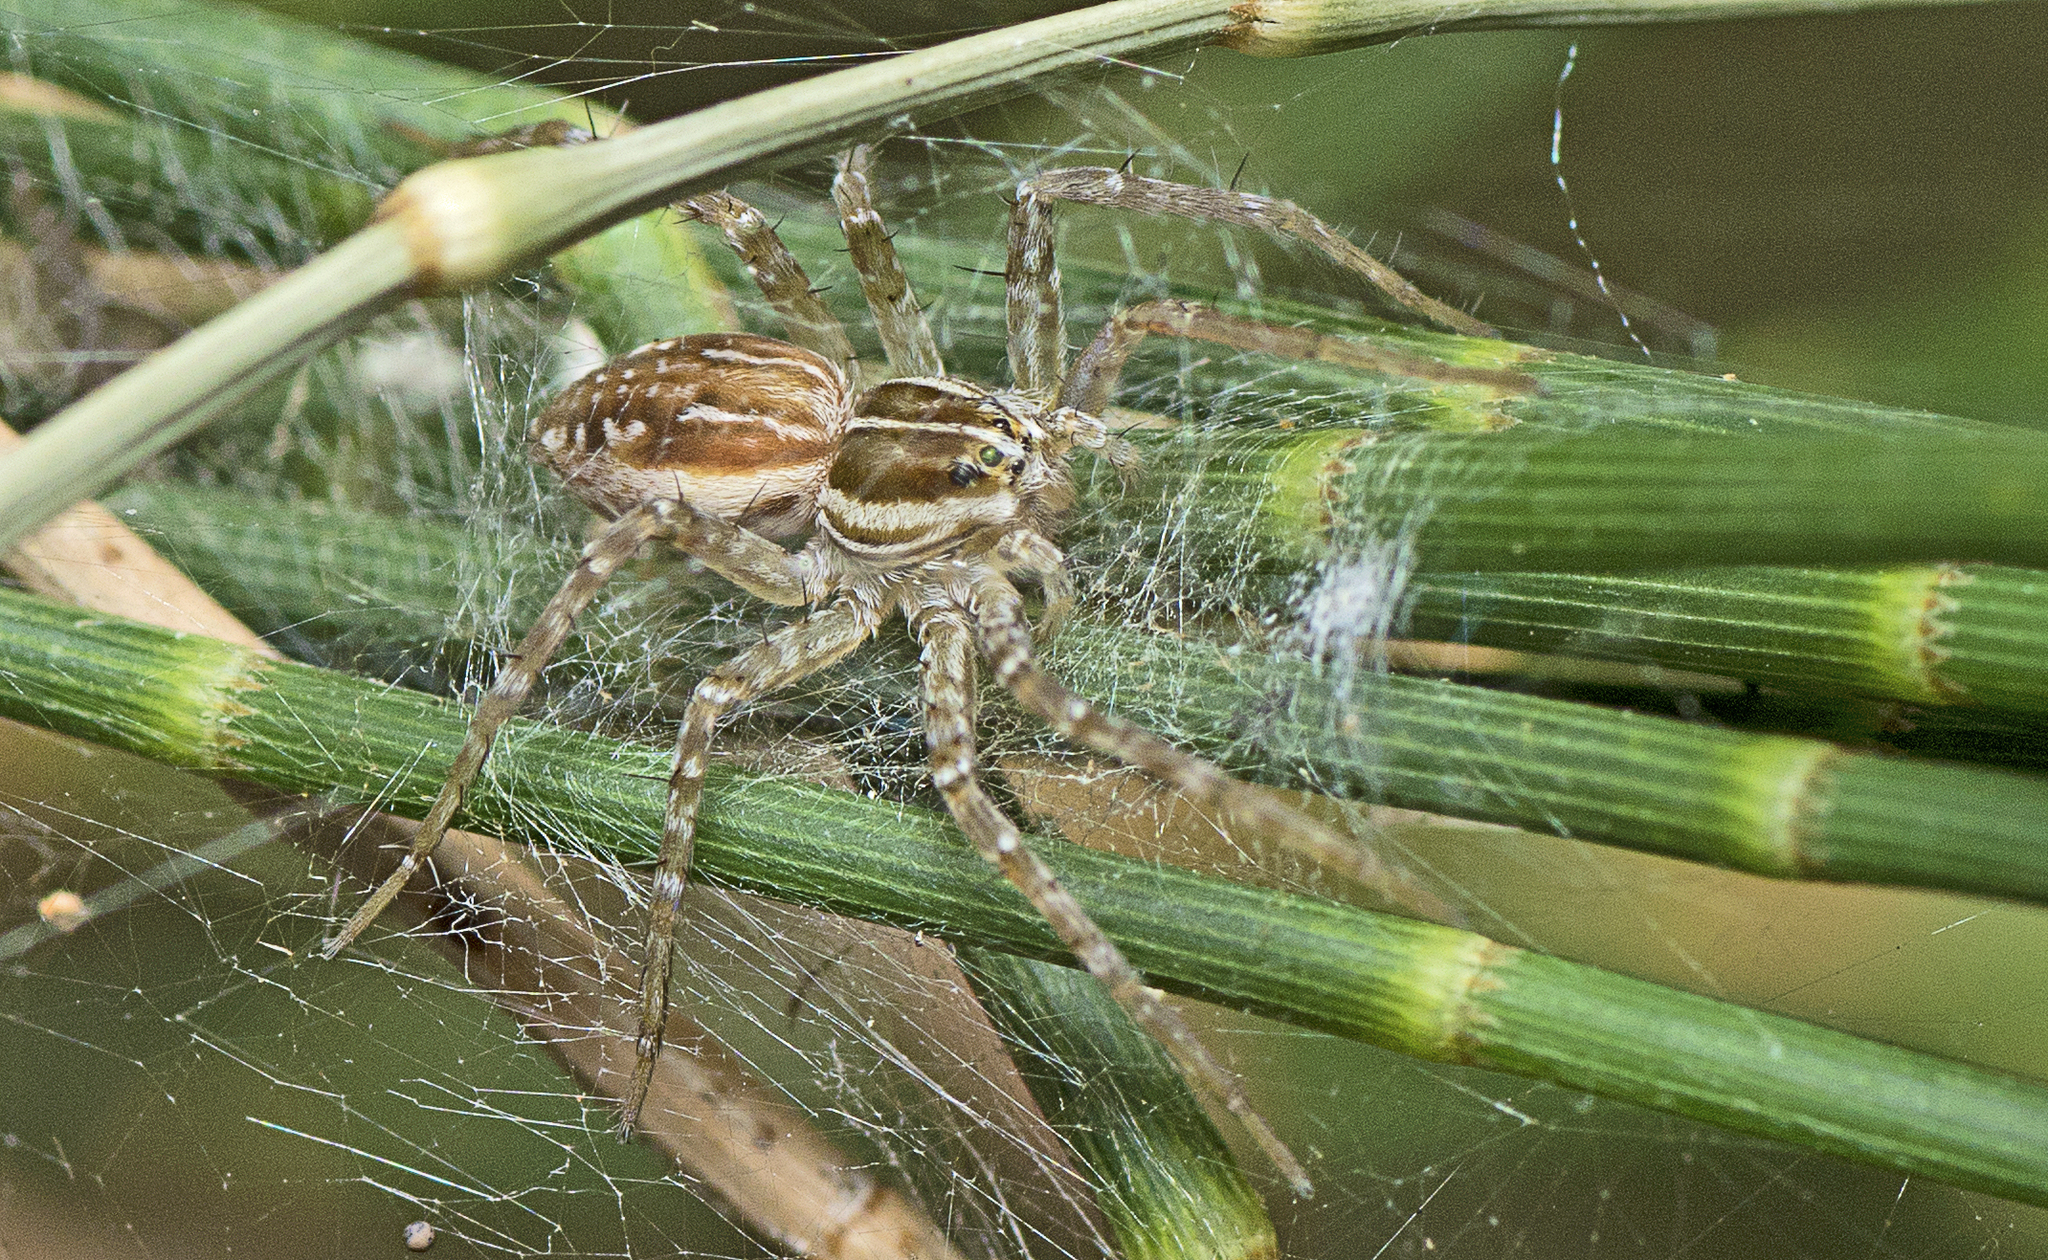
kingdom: Animalia
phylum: Arthropoda
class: Arachnida
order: Araneae
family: Pisauridae
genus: Dolomedes
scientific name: Dolomedes facetus
